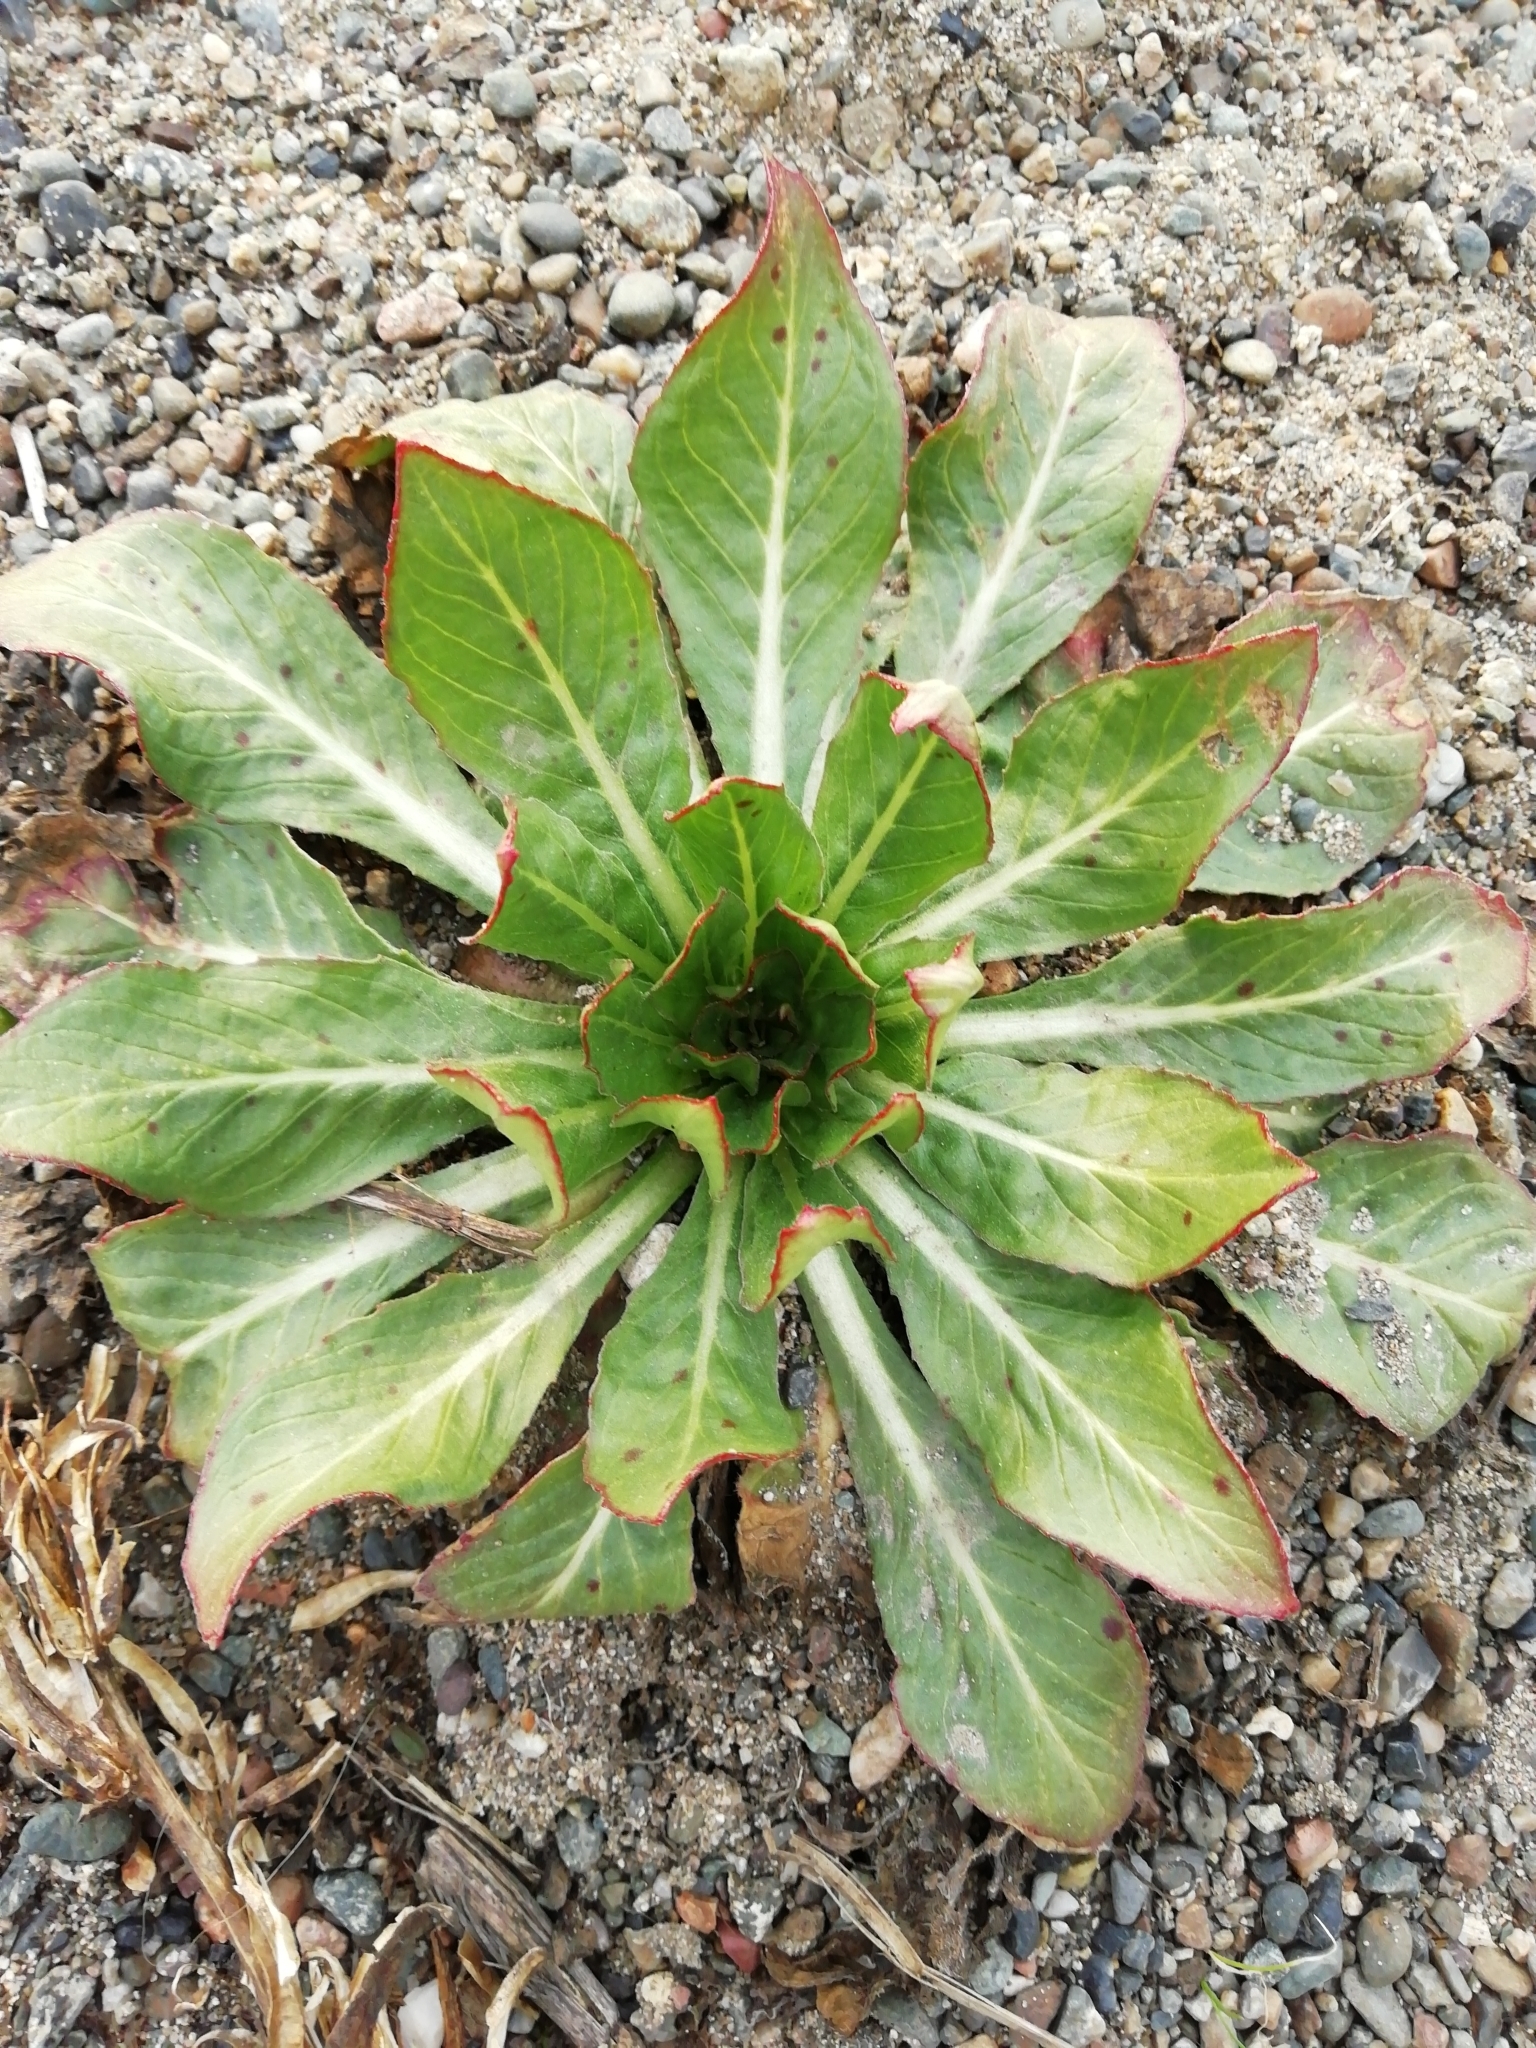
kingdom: Plantae
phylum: Tracheophyta
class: Magnoliopsida
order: Myrtales
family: Onagraceae
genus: Oenothera
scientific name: Oenothera
